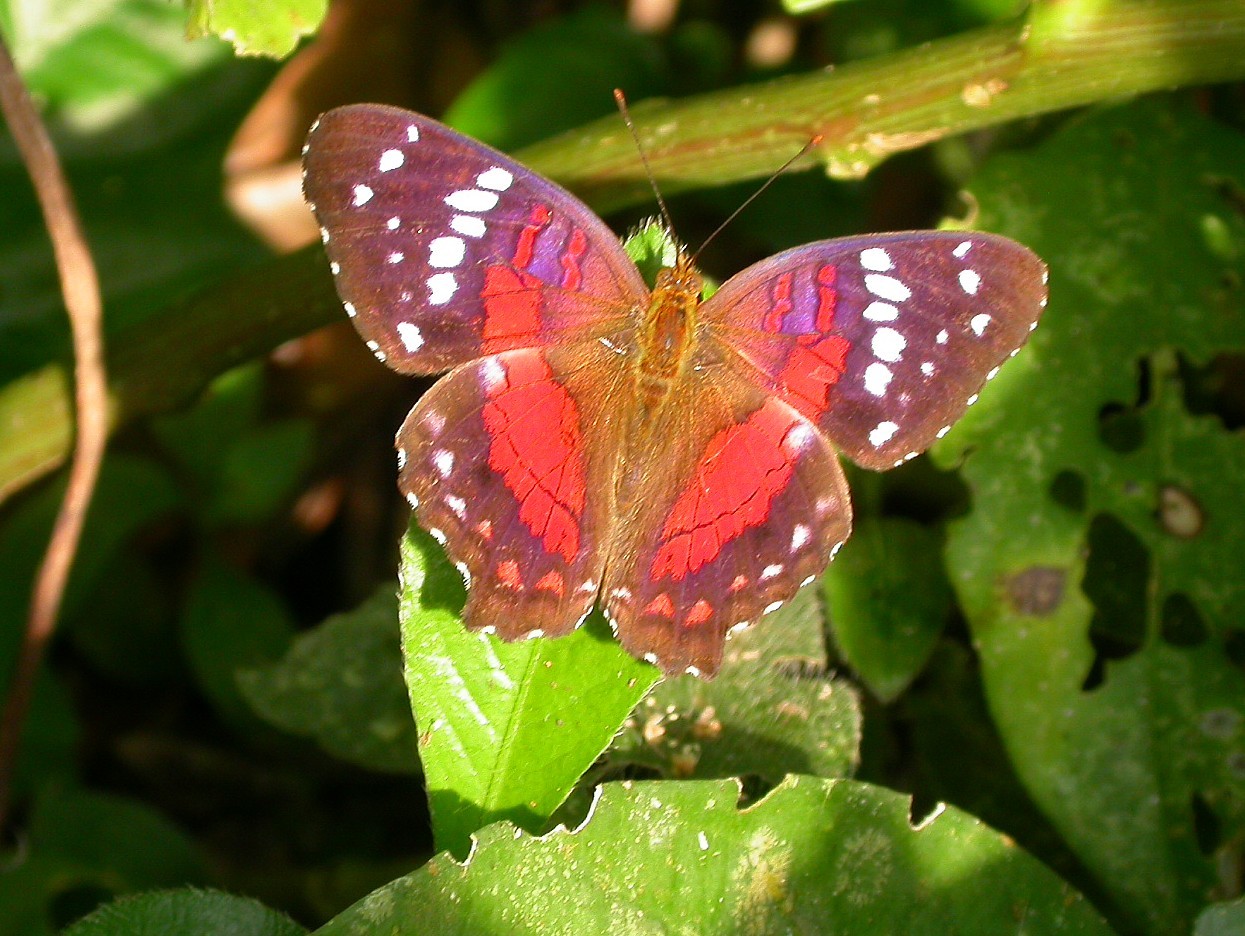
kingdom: Animalia
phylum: Arthropoda
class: Insecta
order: Lepidoptera
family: Nymphalidae
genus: Anartia
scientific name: Anartia amathea
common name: Red peacock
